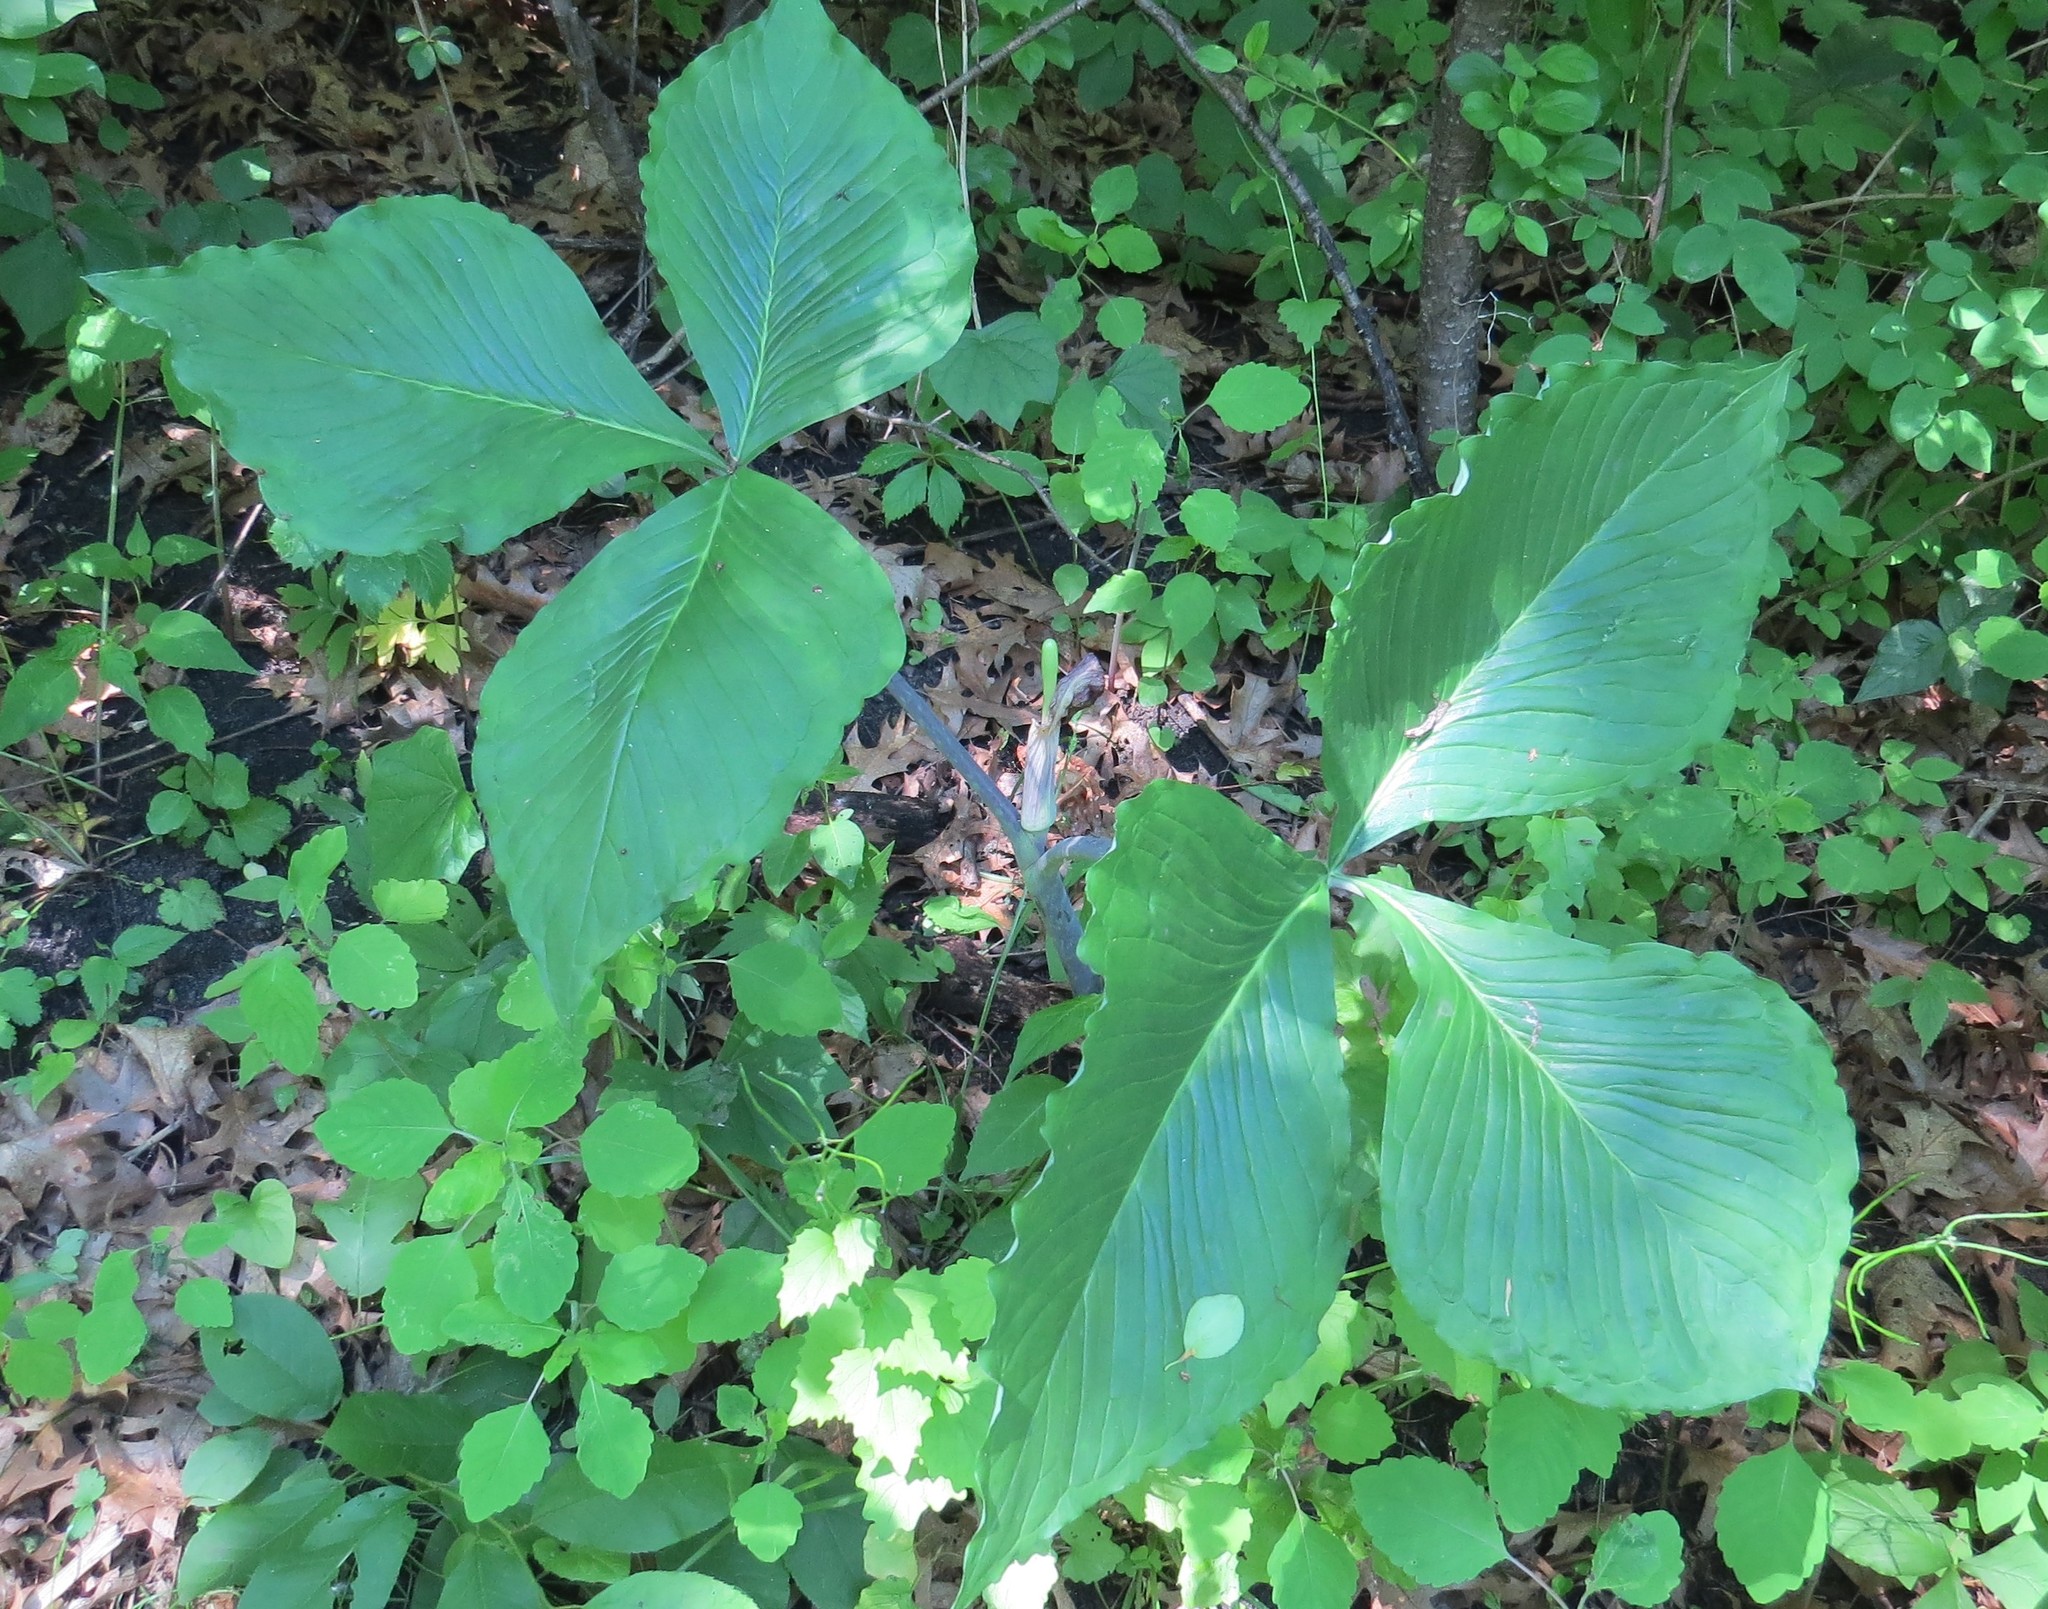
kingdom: Plantae
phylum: Tracheophyta
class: Liliopsida
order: Alismatales
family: Araceae
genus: Arisaema
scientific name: Arisaema triphyllum
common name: Jack-in-the-pulpit
